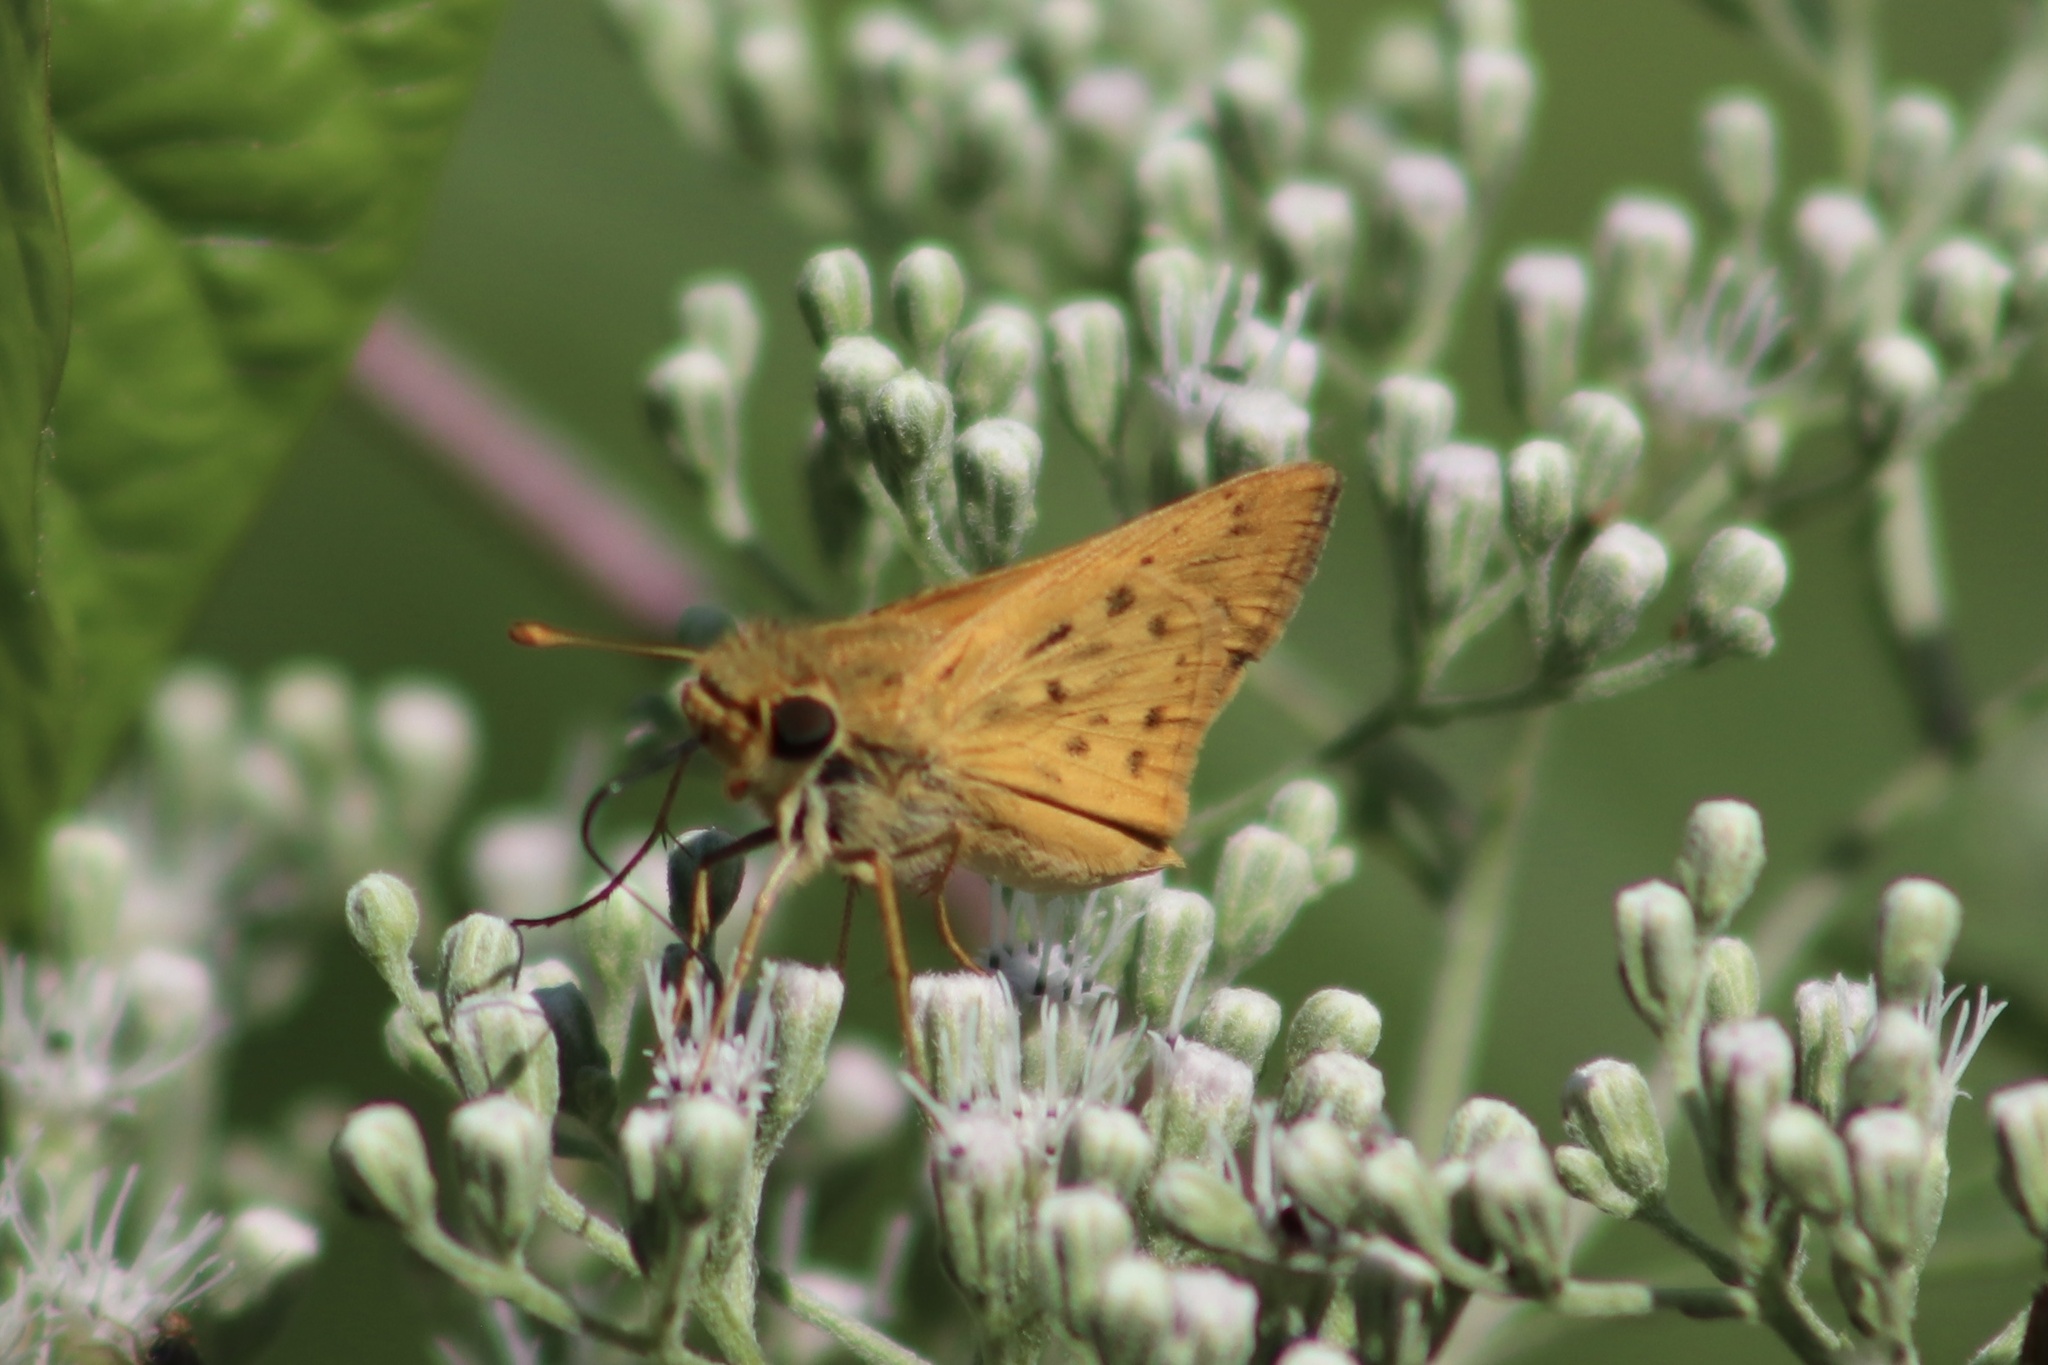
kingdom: Animalia
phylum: Arthropoda
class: Insecta
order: Lepidoptera
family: Hesperiidae
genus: Hylephila
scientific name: Hylephila phyleus
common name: Fiery skipper
